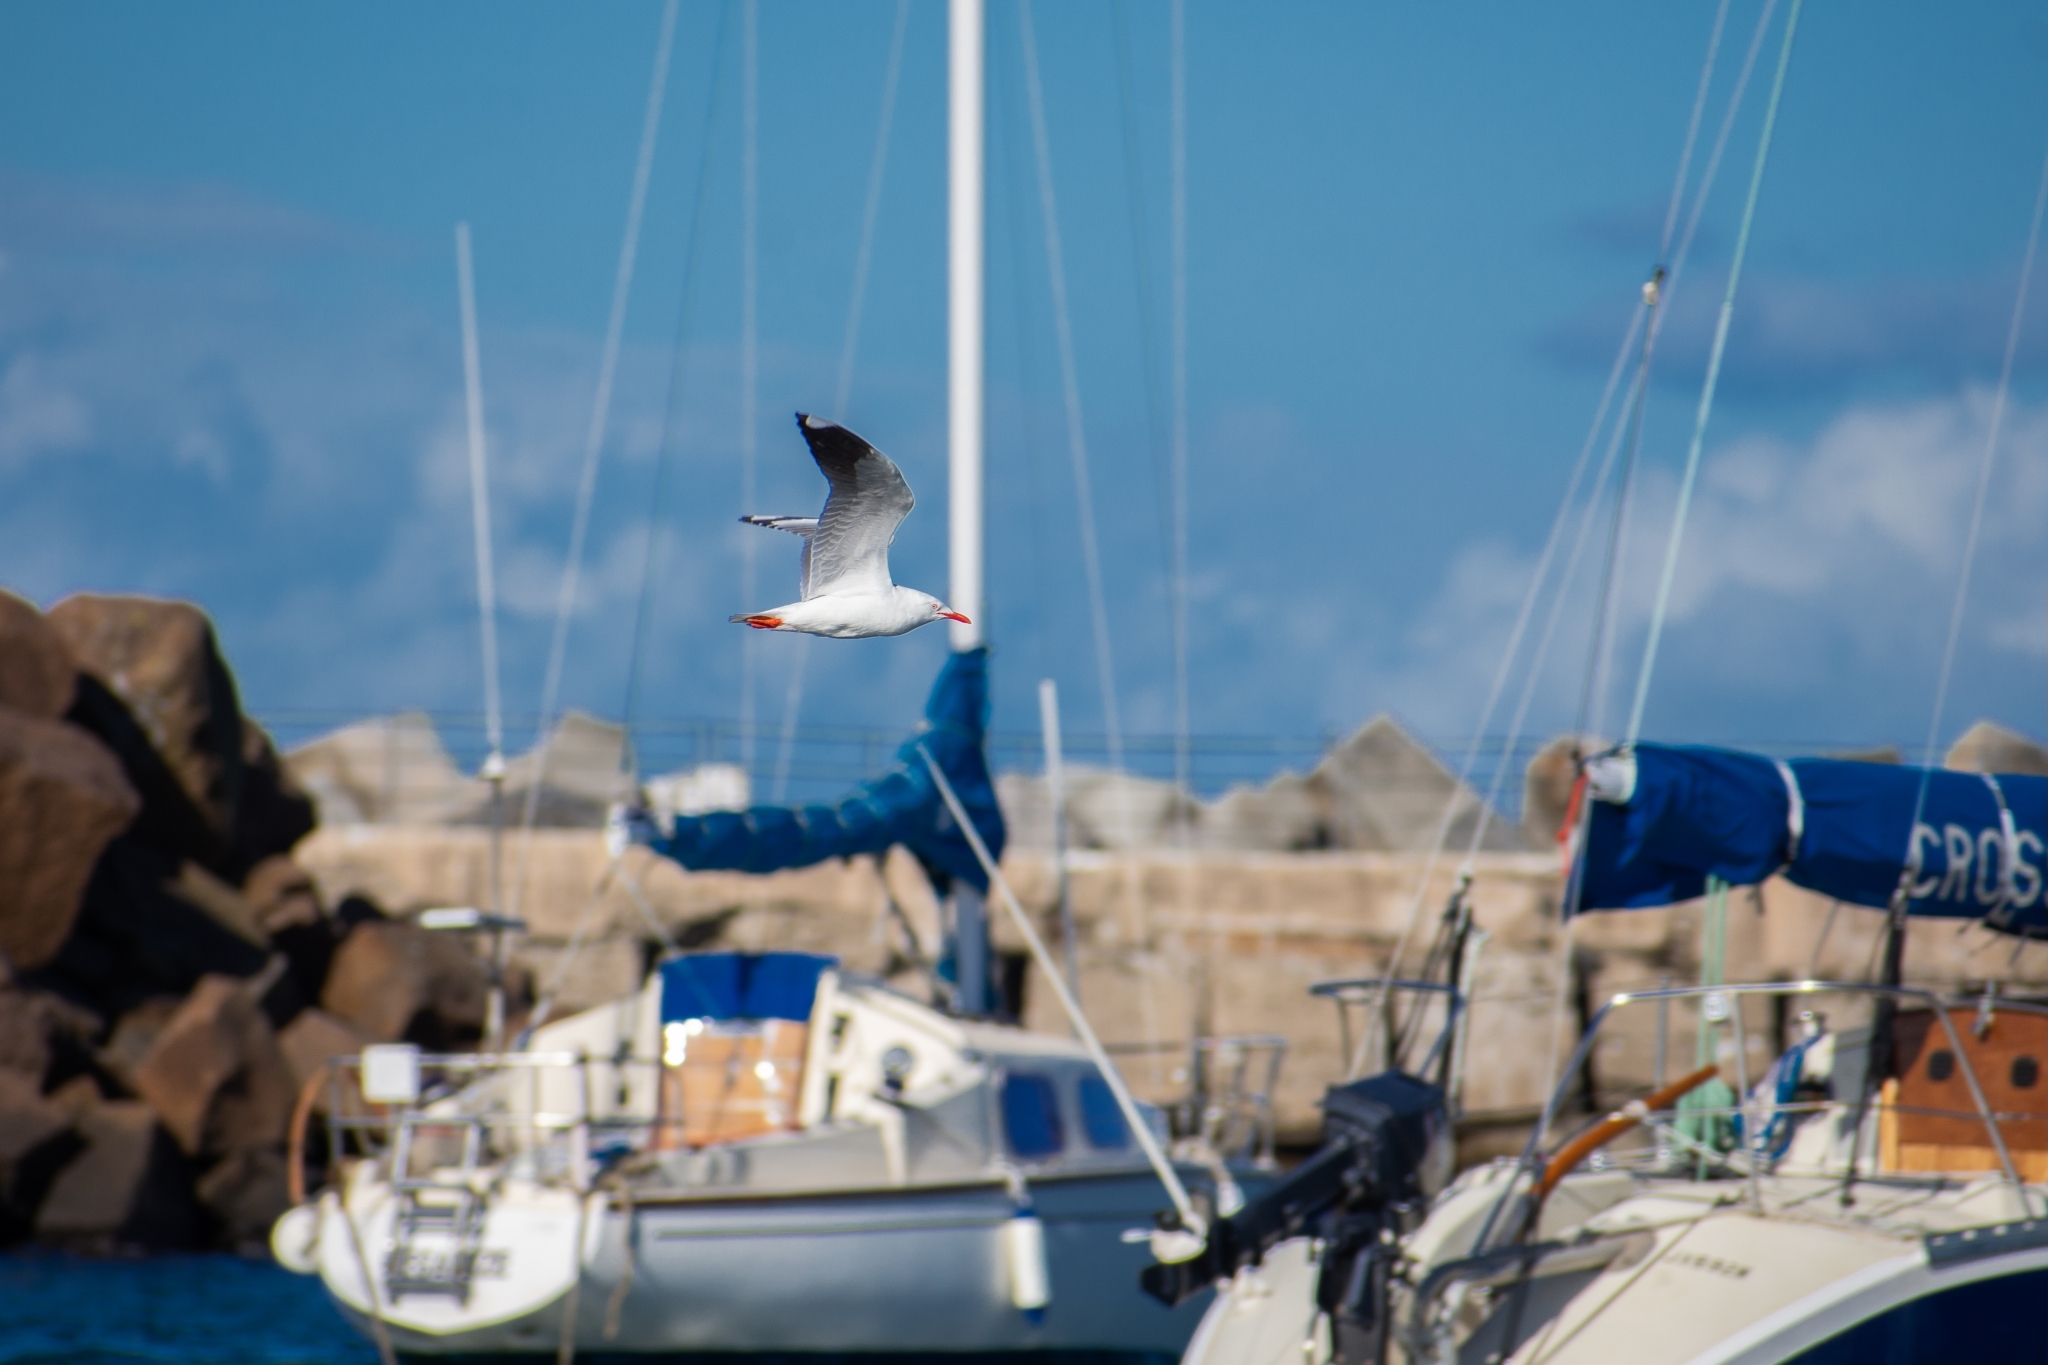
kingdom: Animalia
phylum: Chordata
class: Aves
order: Charadriiformes
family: Laridae
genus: Chroicocephalus
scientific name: Chroicocephalus novaehollandiae
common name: Silver gull
